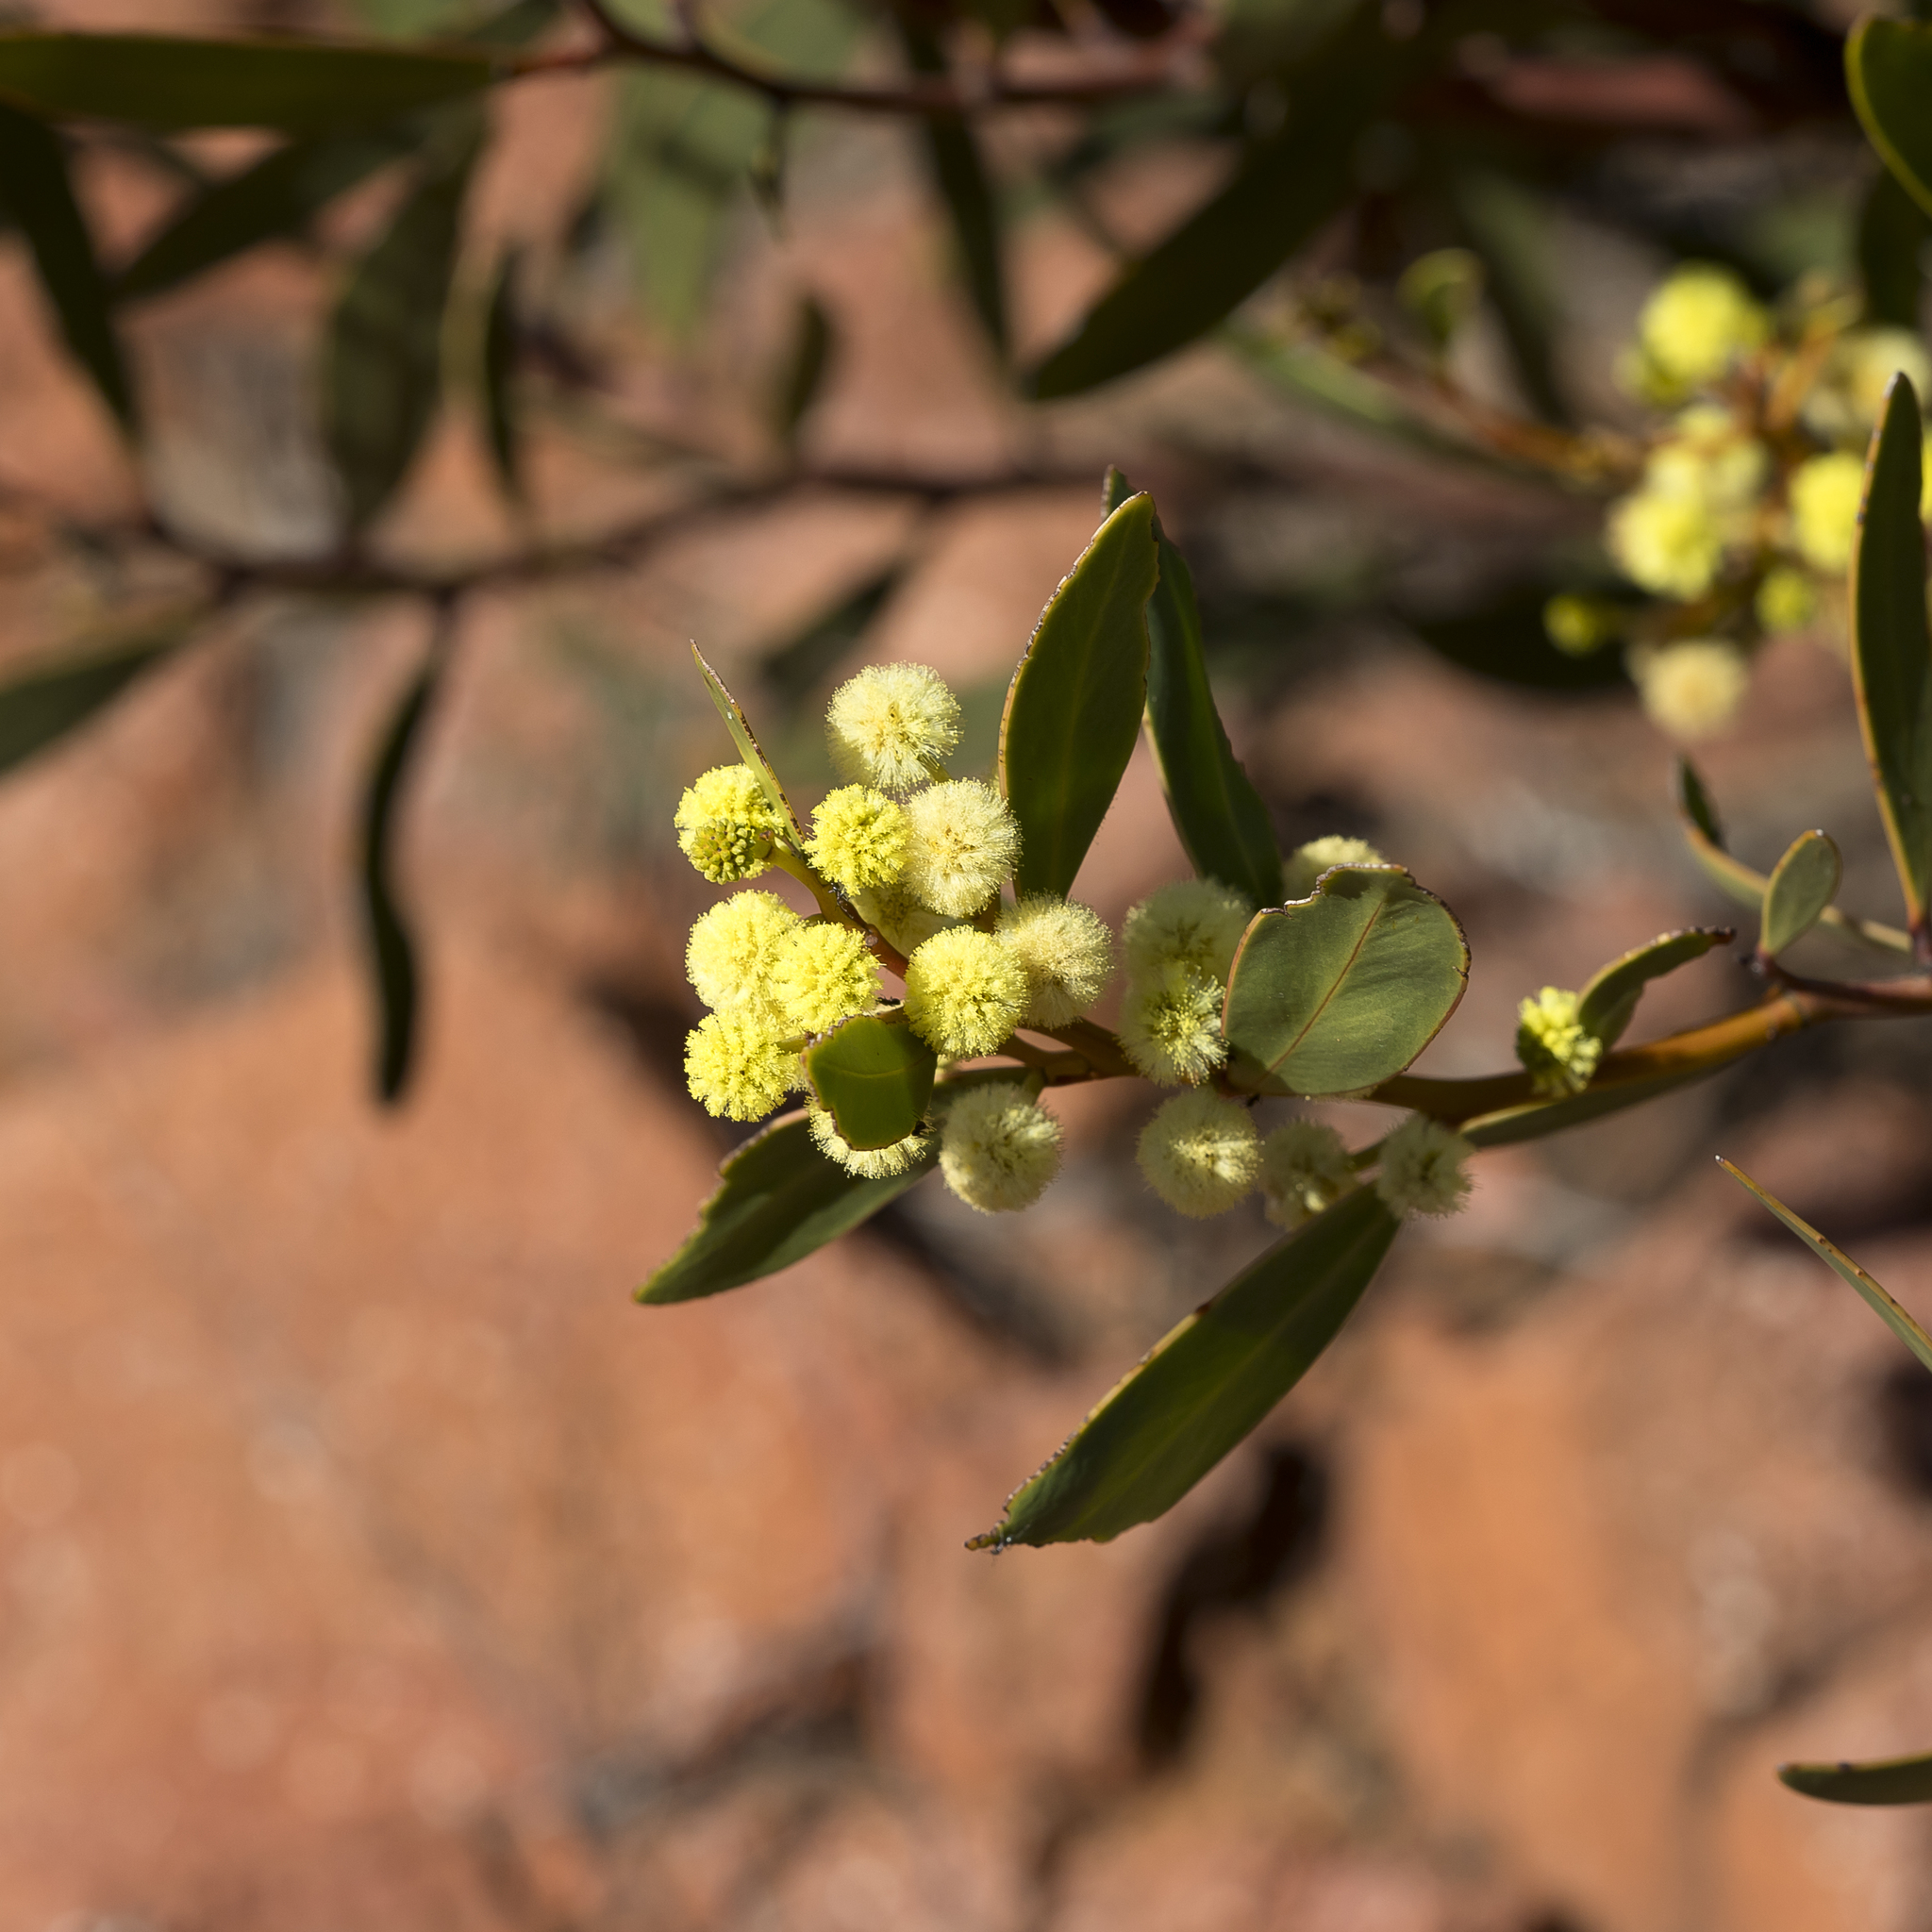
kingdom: Plantae
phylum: Tracheophyta
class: Magnoliopsida
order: Fabales
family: Fabaceae
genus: Acacia
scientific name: Acacia notabilis
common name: Flinders wattle
